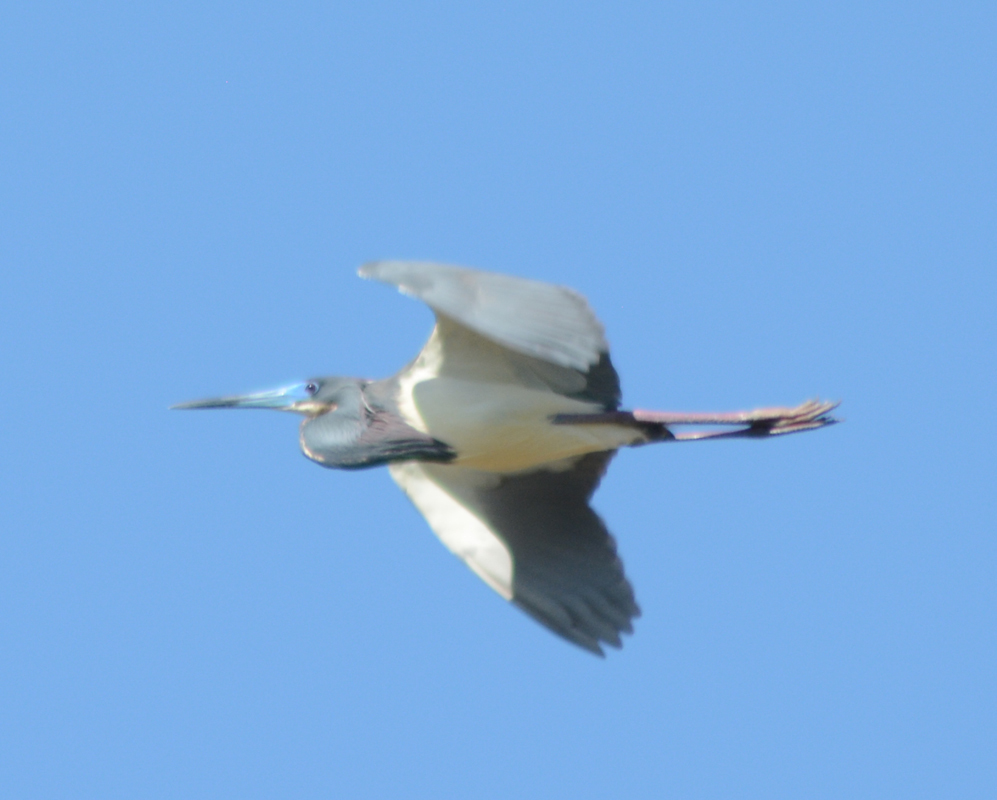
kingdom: Animalia
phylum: Chordata
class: Aves
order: Pelecaniformes
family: Ardeidae
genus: Egretta
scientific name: Egretta tricolor
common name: Tricolored heron
